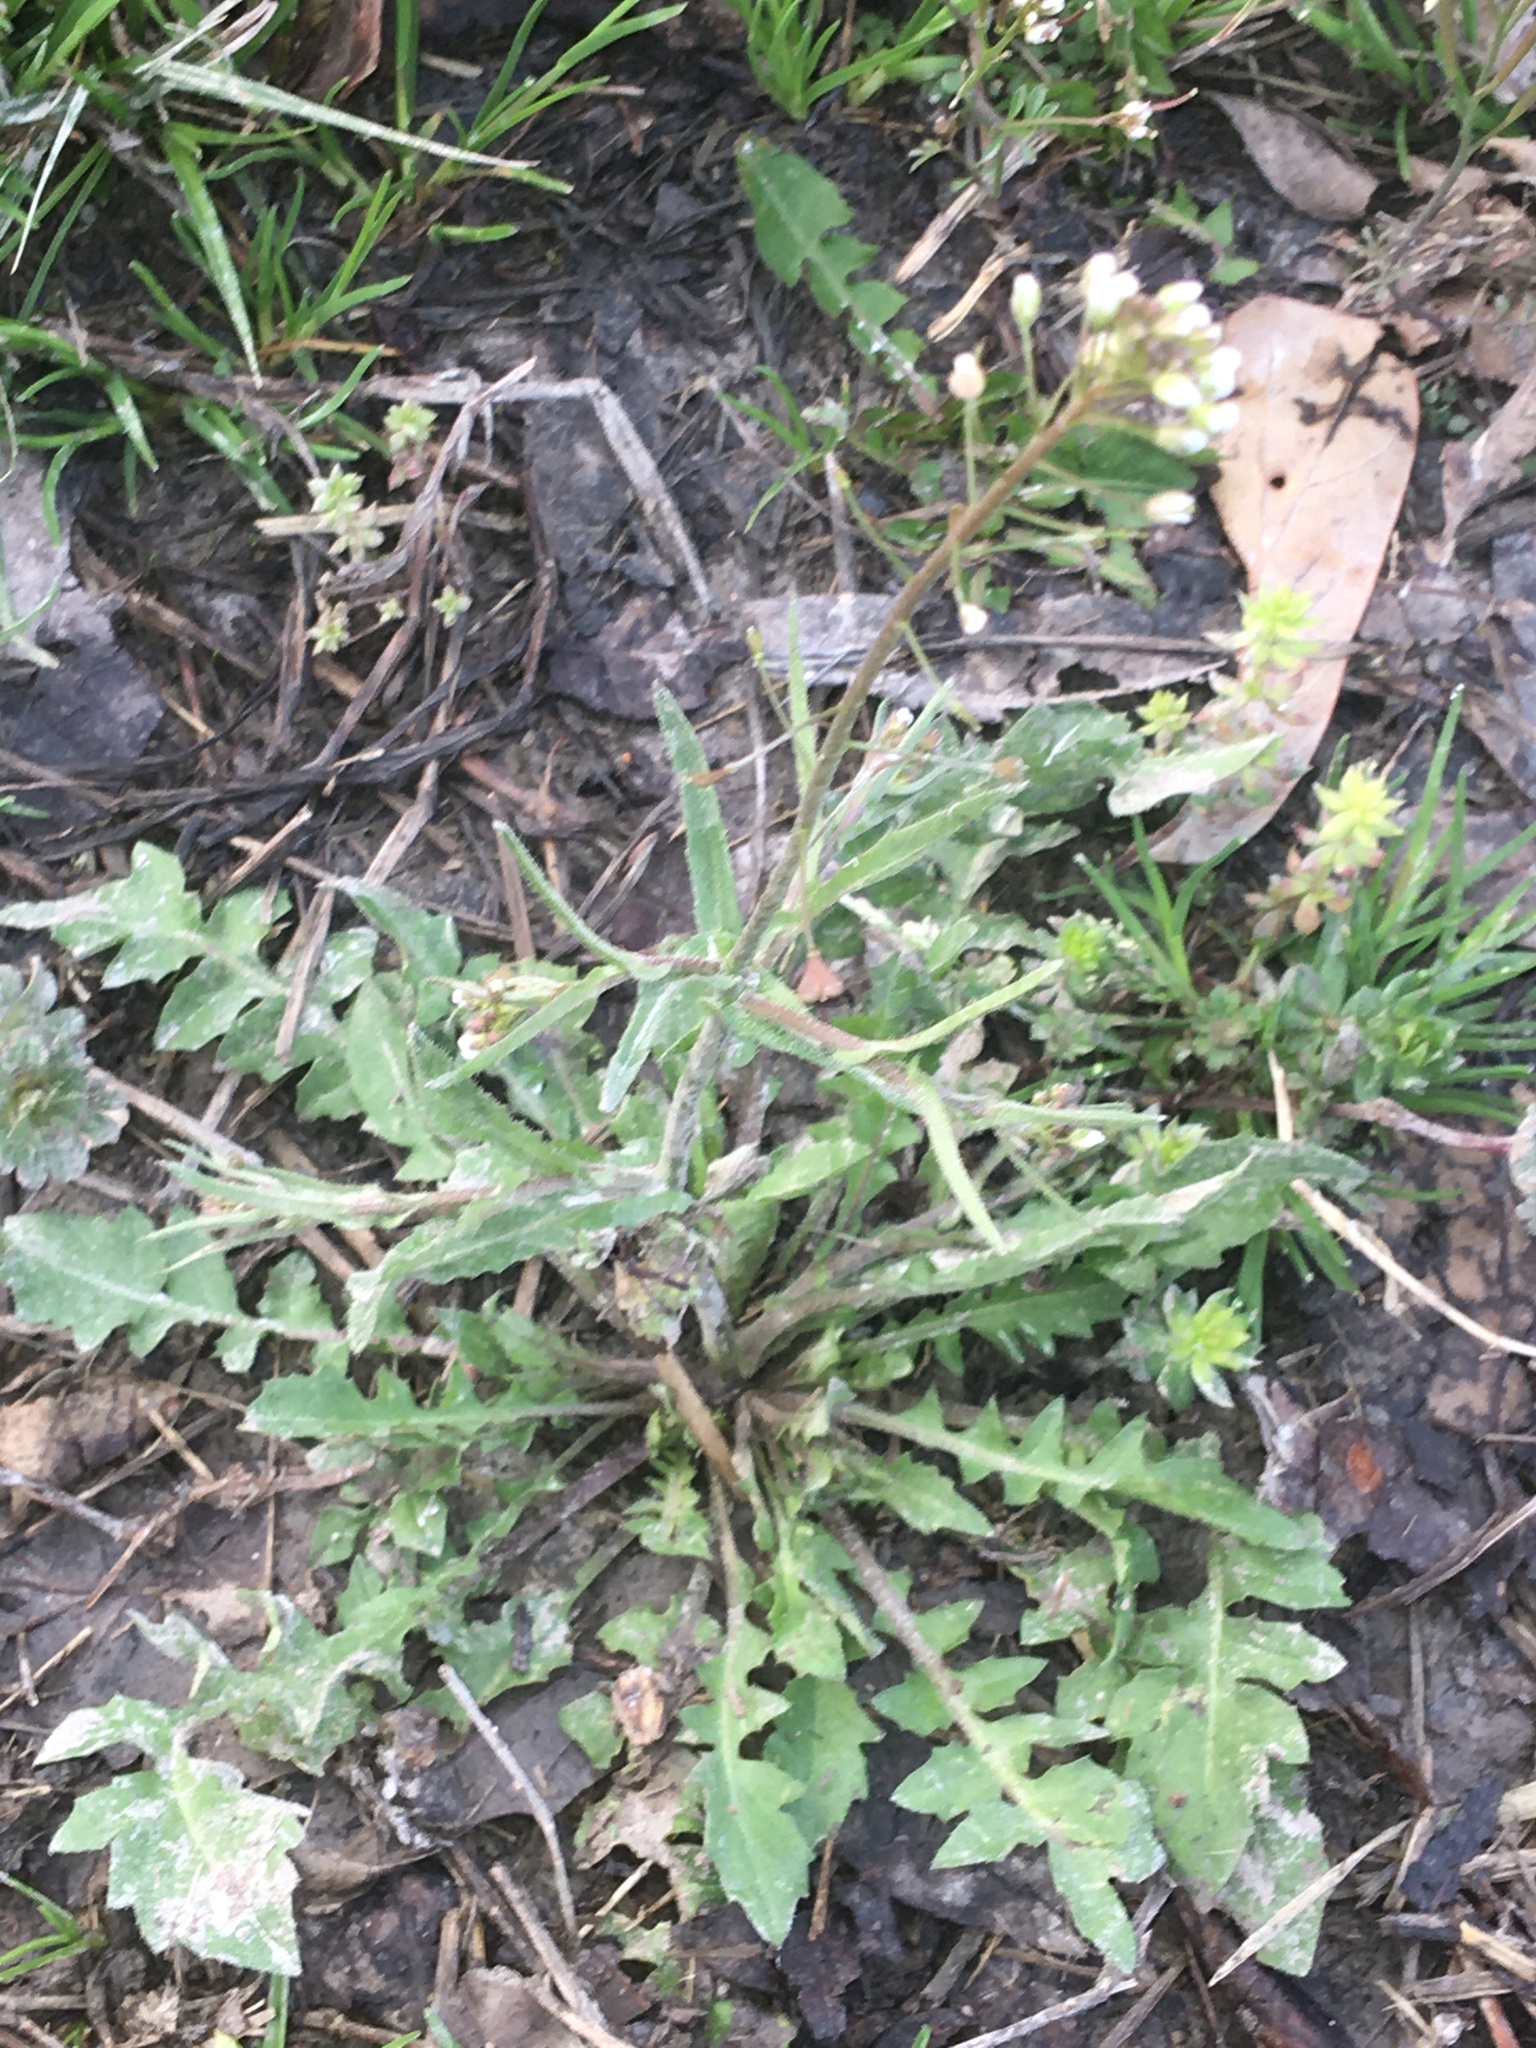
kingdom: Plantae
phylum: Tracheophyta
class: Magnoliopsida
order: Brassicales
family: Brassicaceae
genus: Capsella
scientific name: Capsella bursa-pastoris
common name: Shepherd's purse
